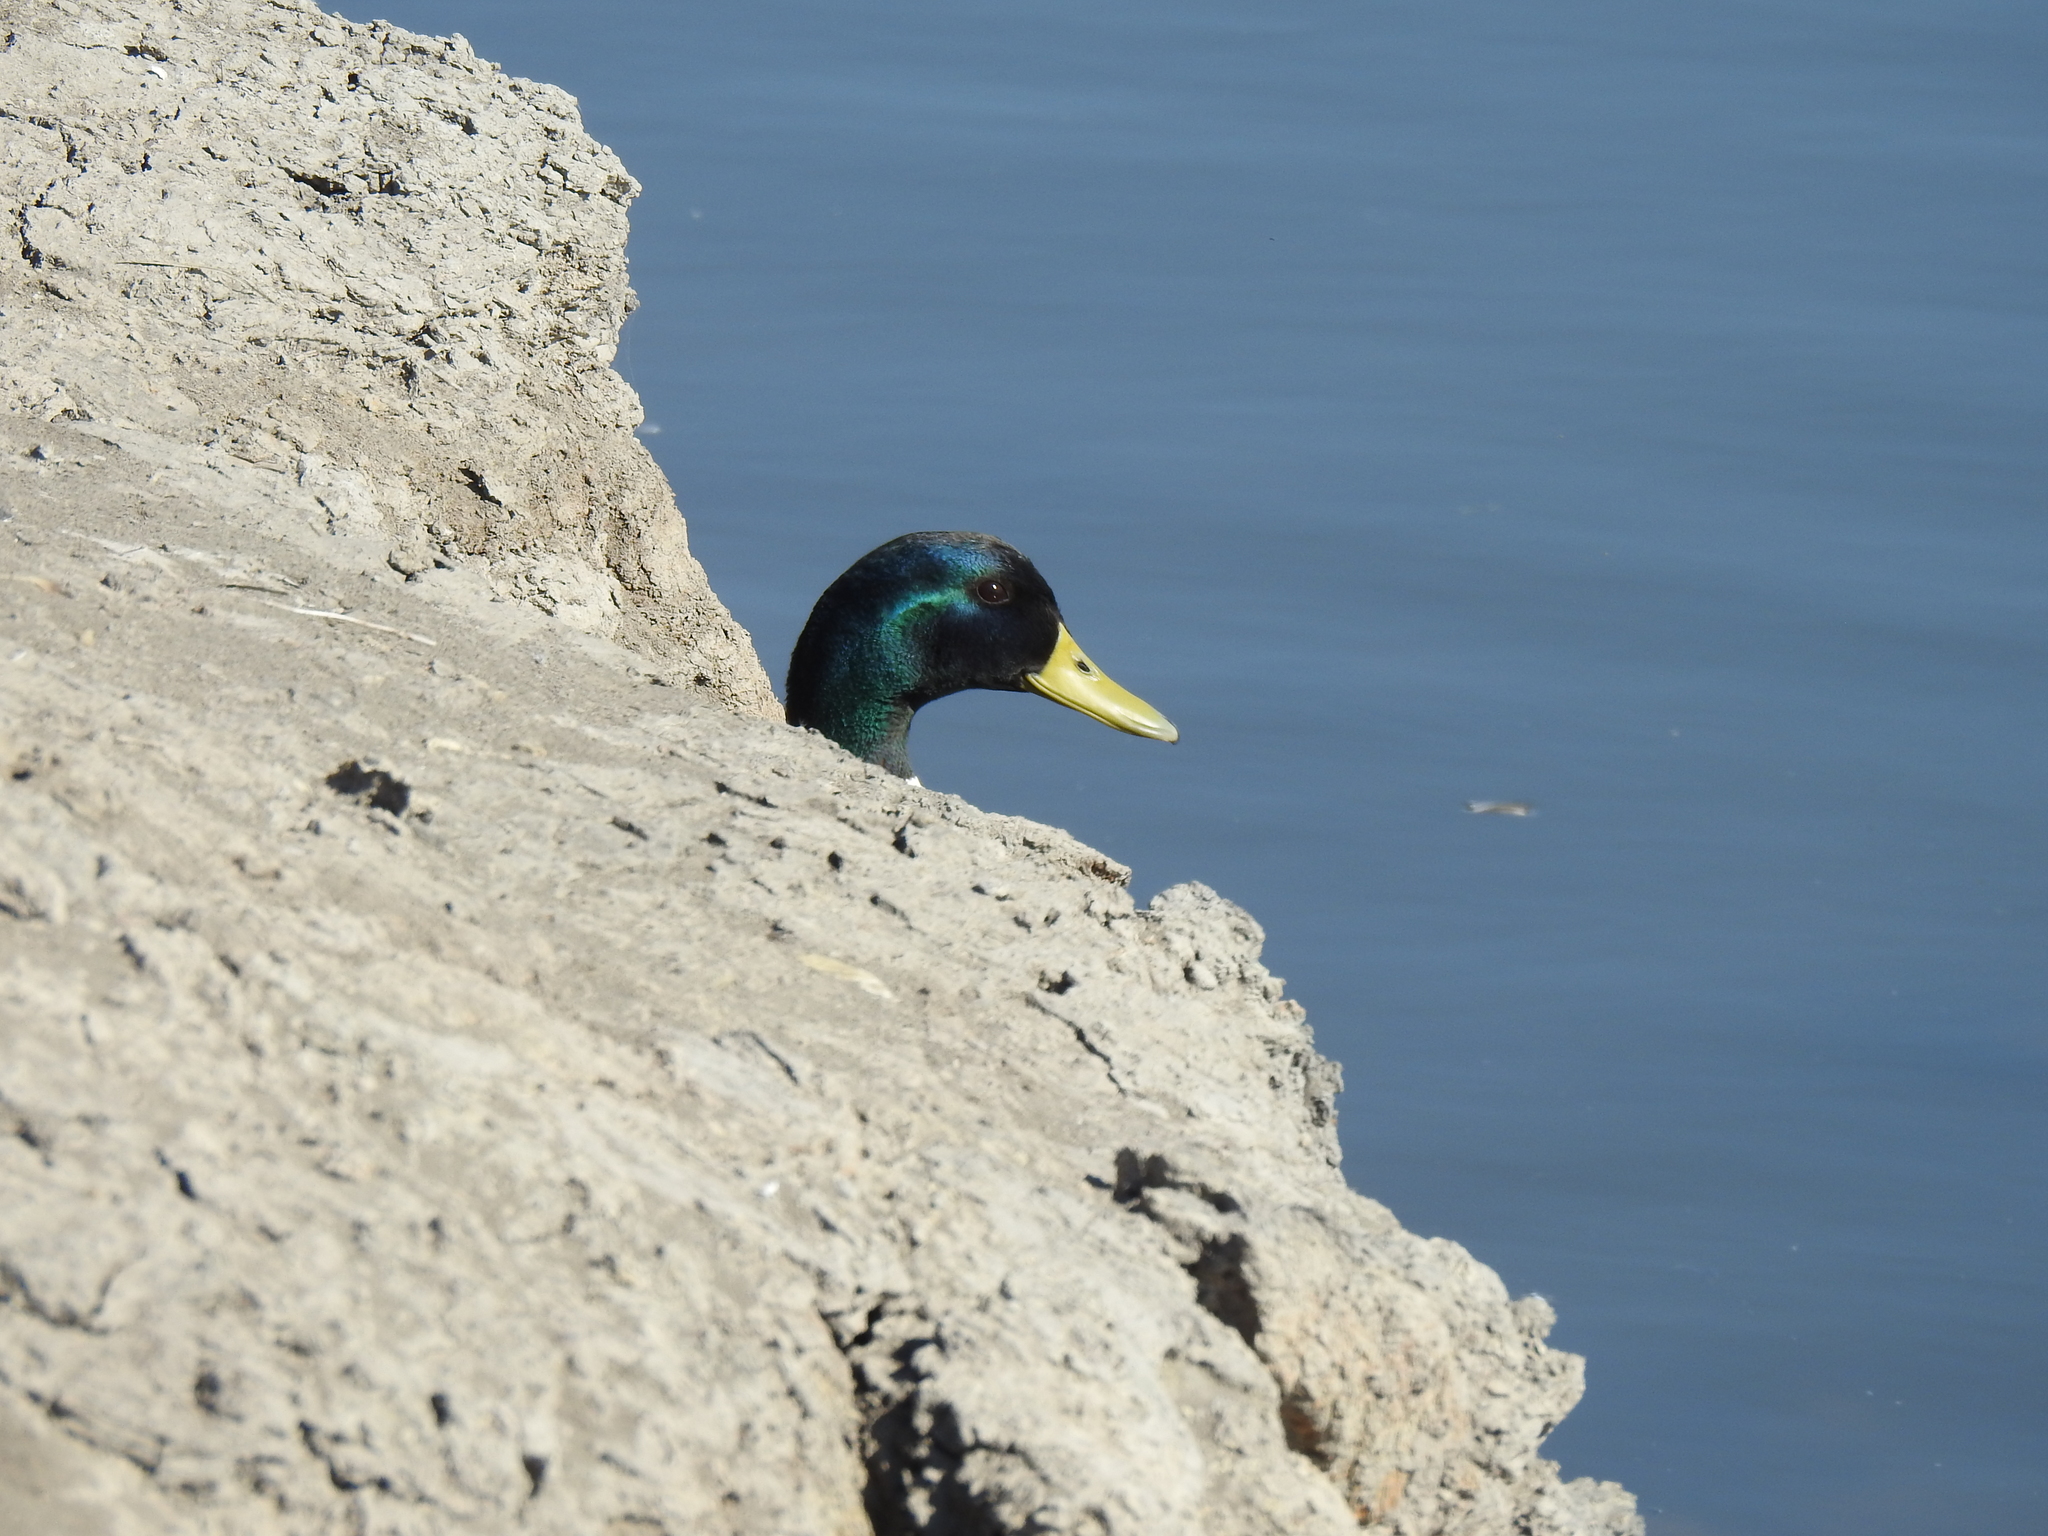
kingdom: Animalia
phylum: Chordata
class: Aves
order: Anseriformes
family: Anatidae
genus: Anas
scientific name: Anas platyrhynchos
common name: Mallard
